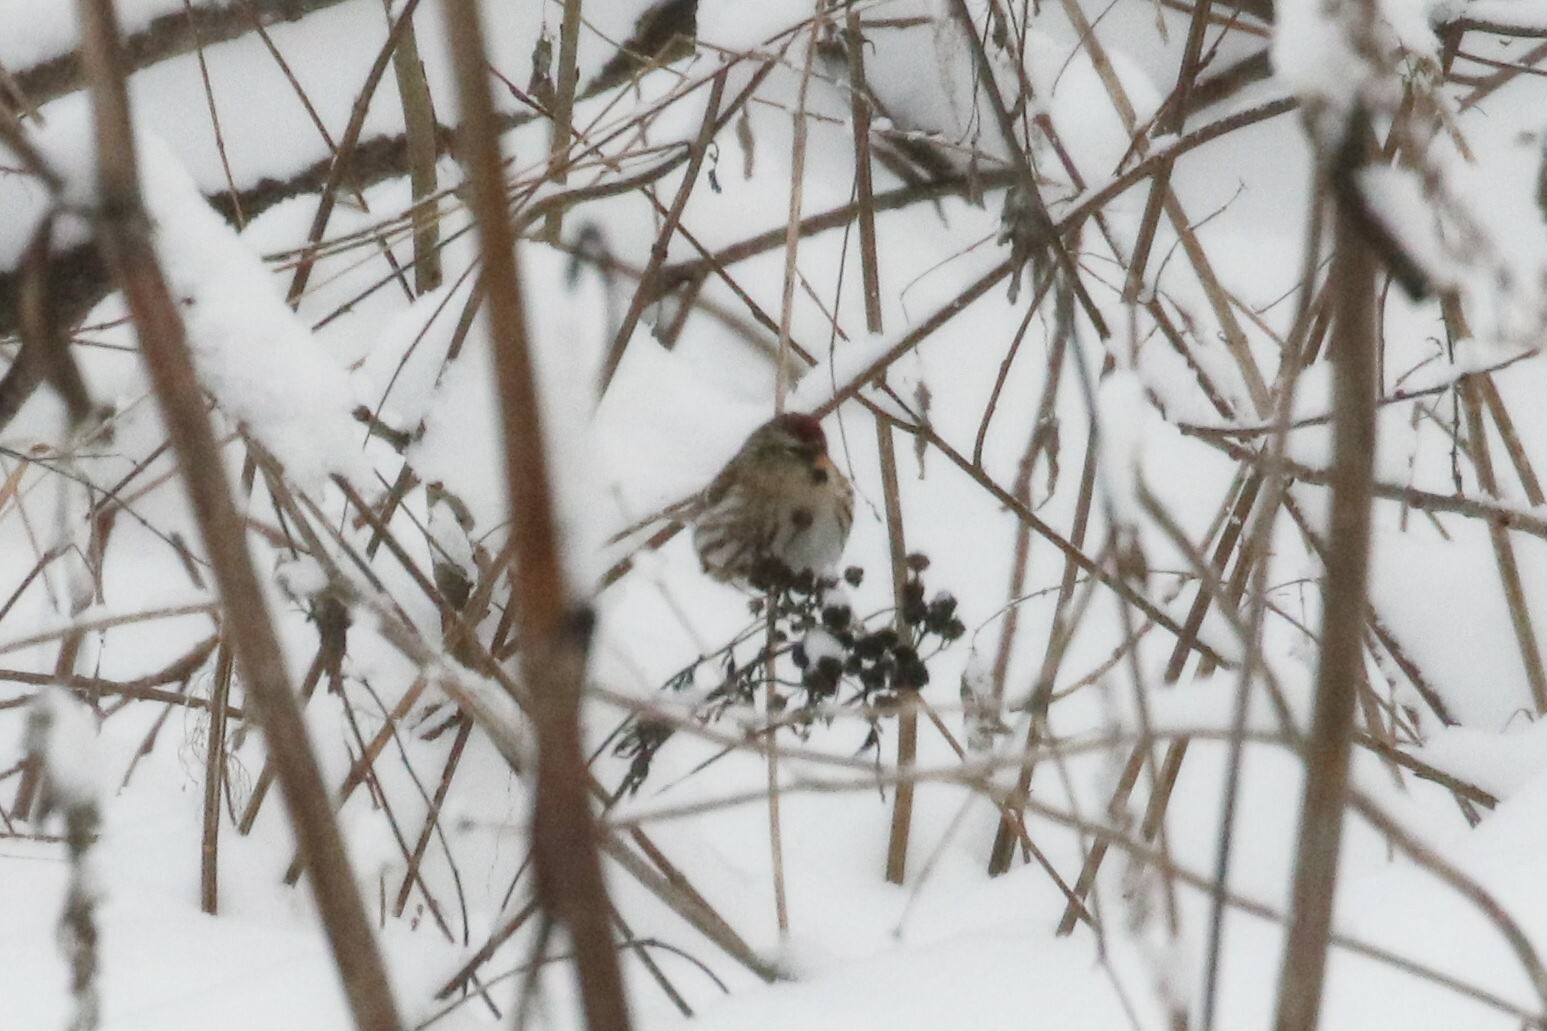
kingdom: Animalia
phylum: Chordata
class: Aves
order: Passeriformes
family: Fringillidae
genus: Acanthis
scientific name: Acanthis flammea
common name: Common redpoll
